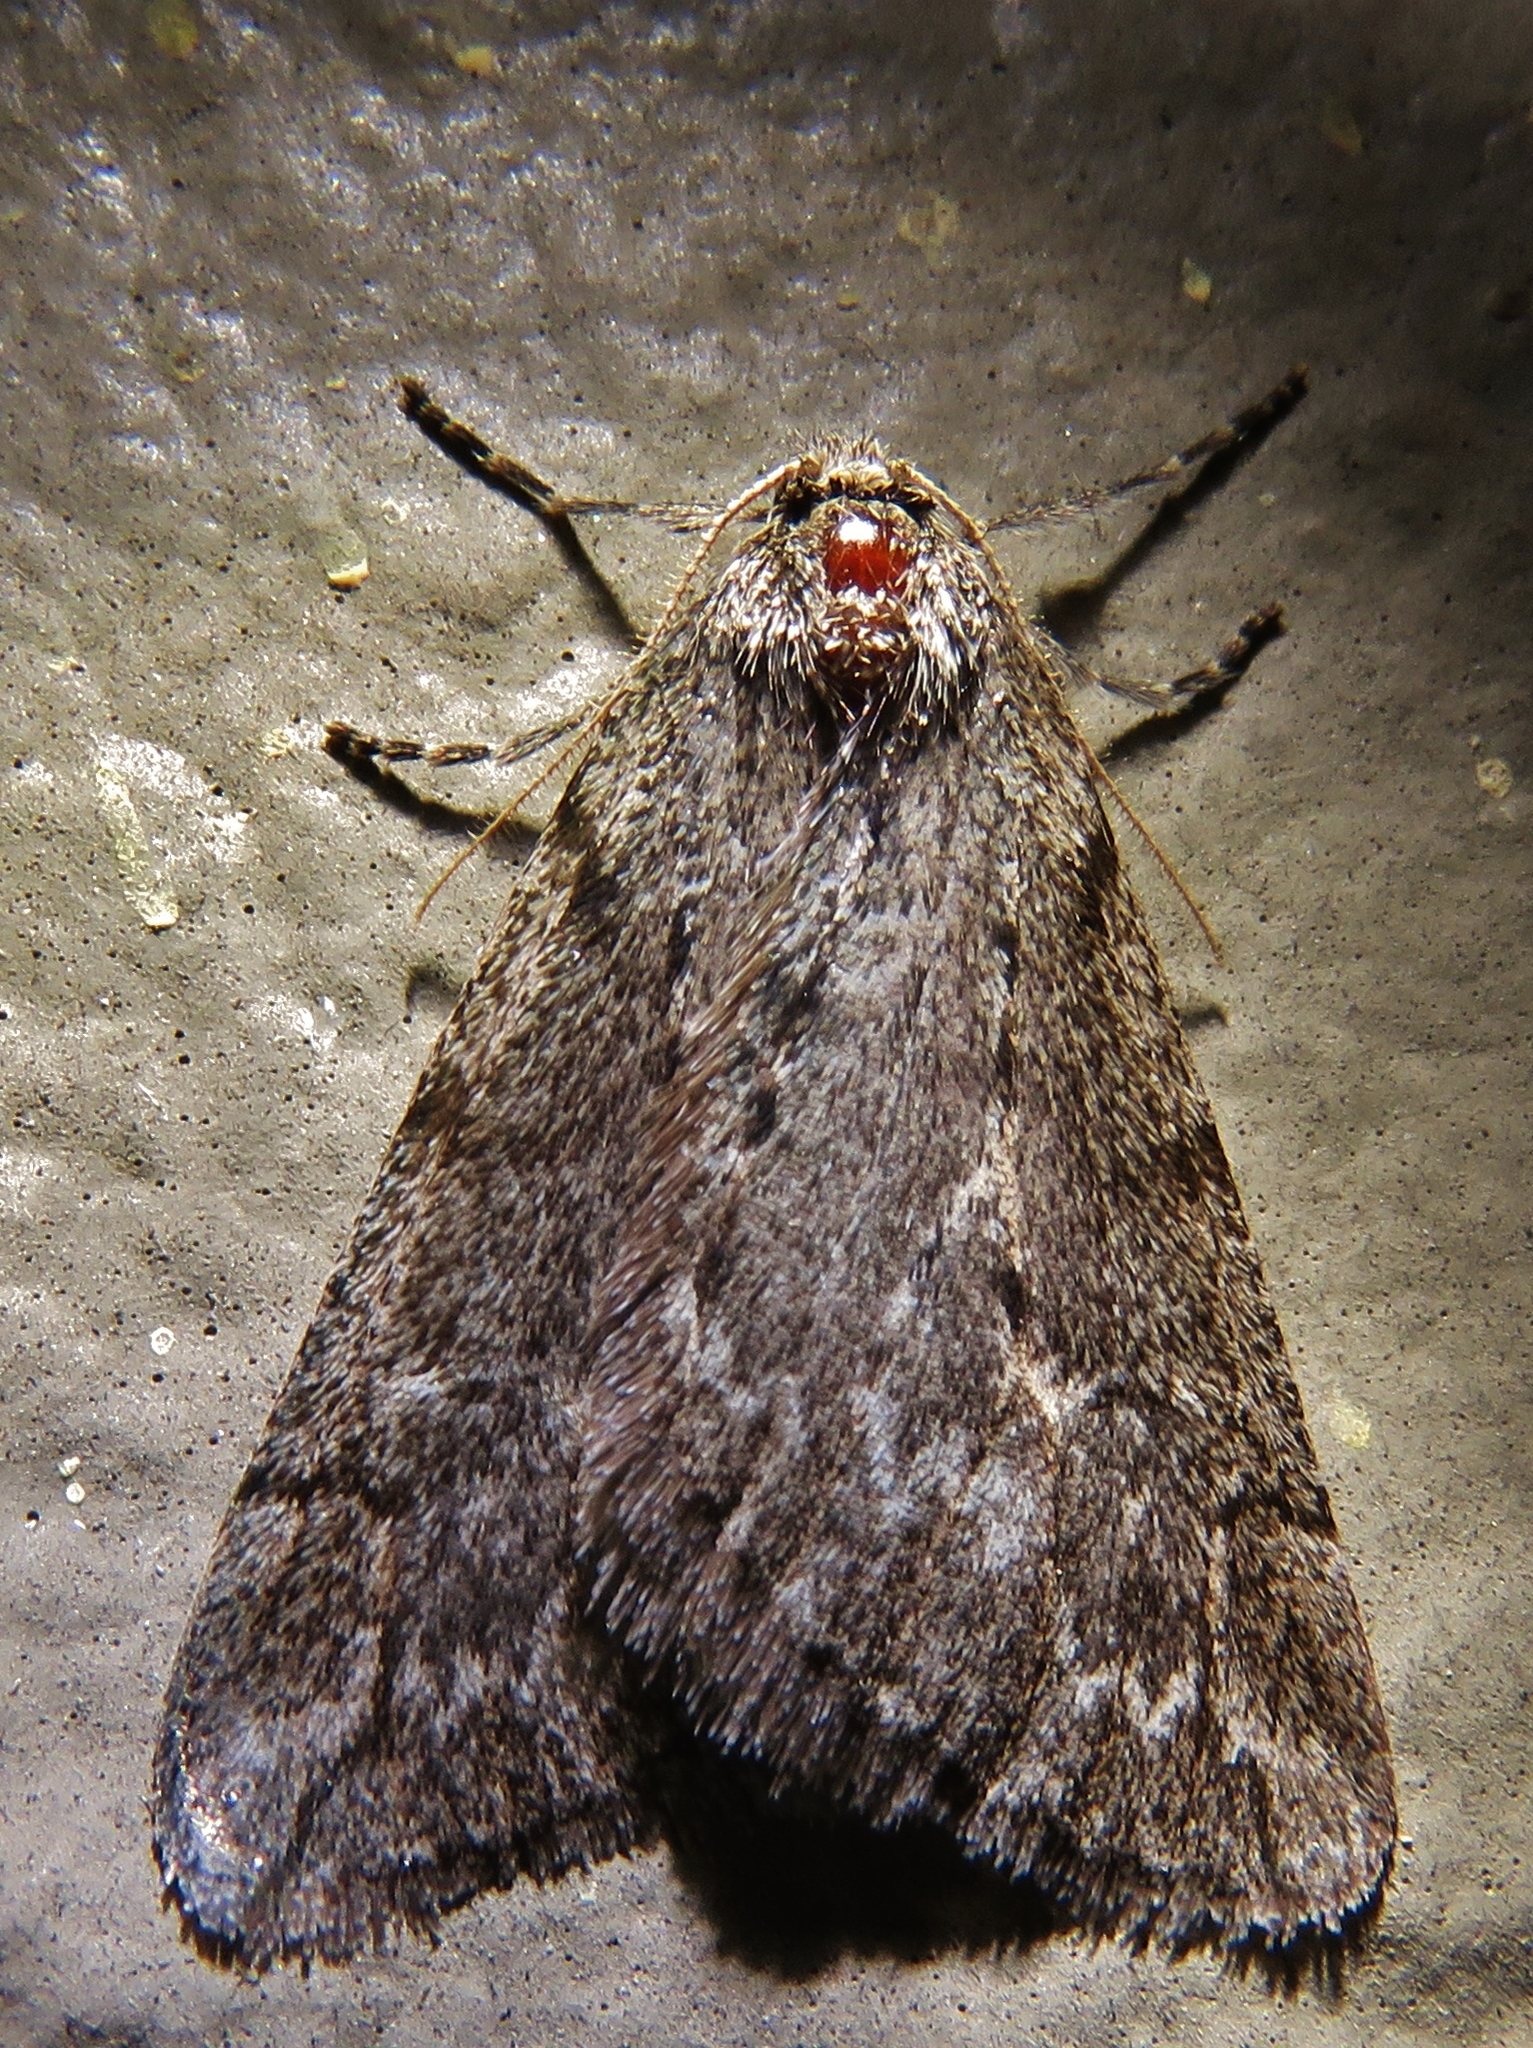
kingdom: Animalia
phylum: Arthropoda
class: Insecta
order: Lepidoptera
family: Geometridae
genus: Paleacrita
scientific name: Paleacrita vernata
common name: Spring cankerworm
